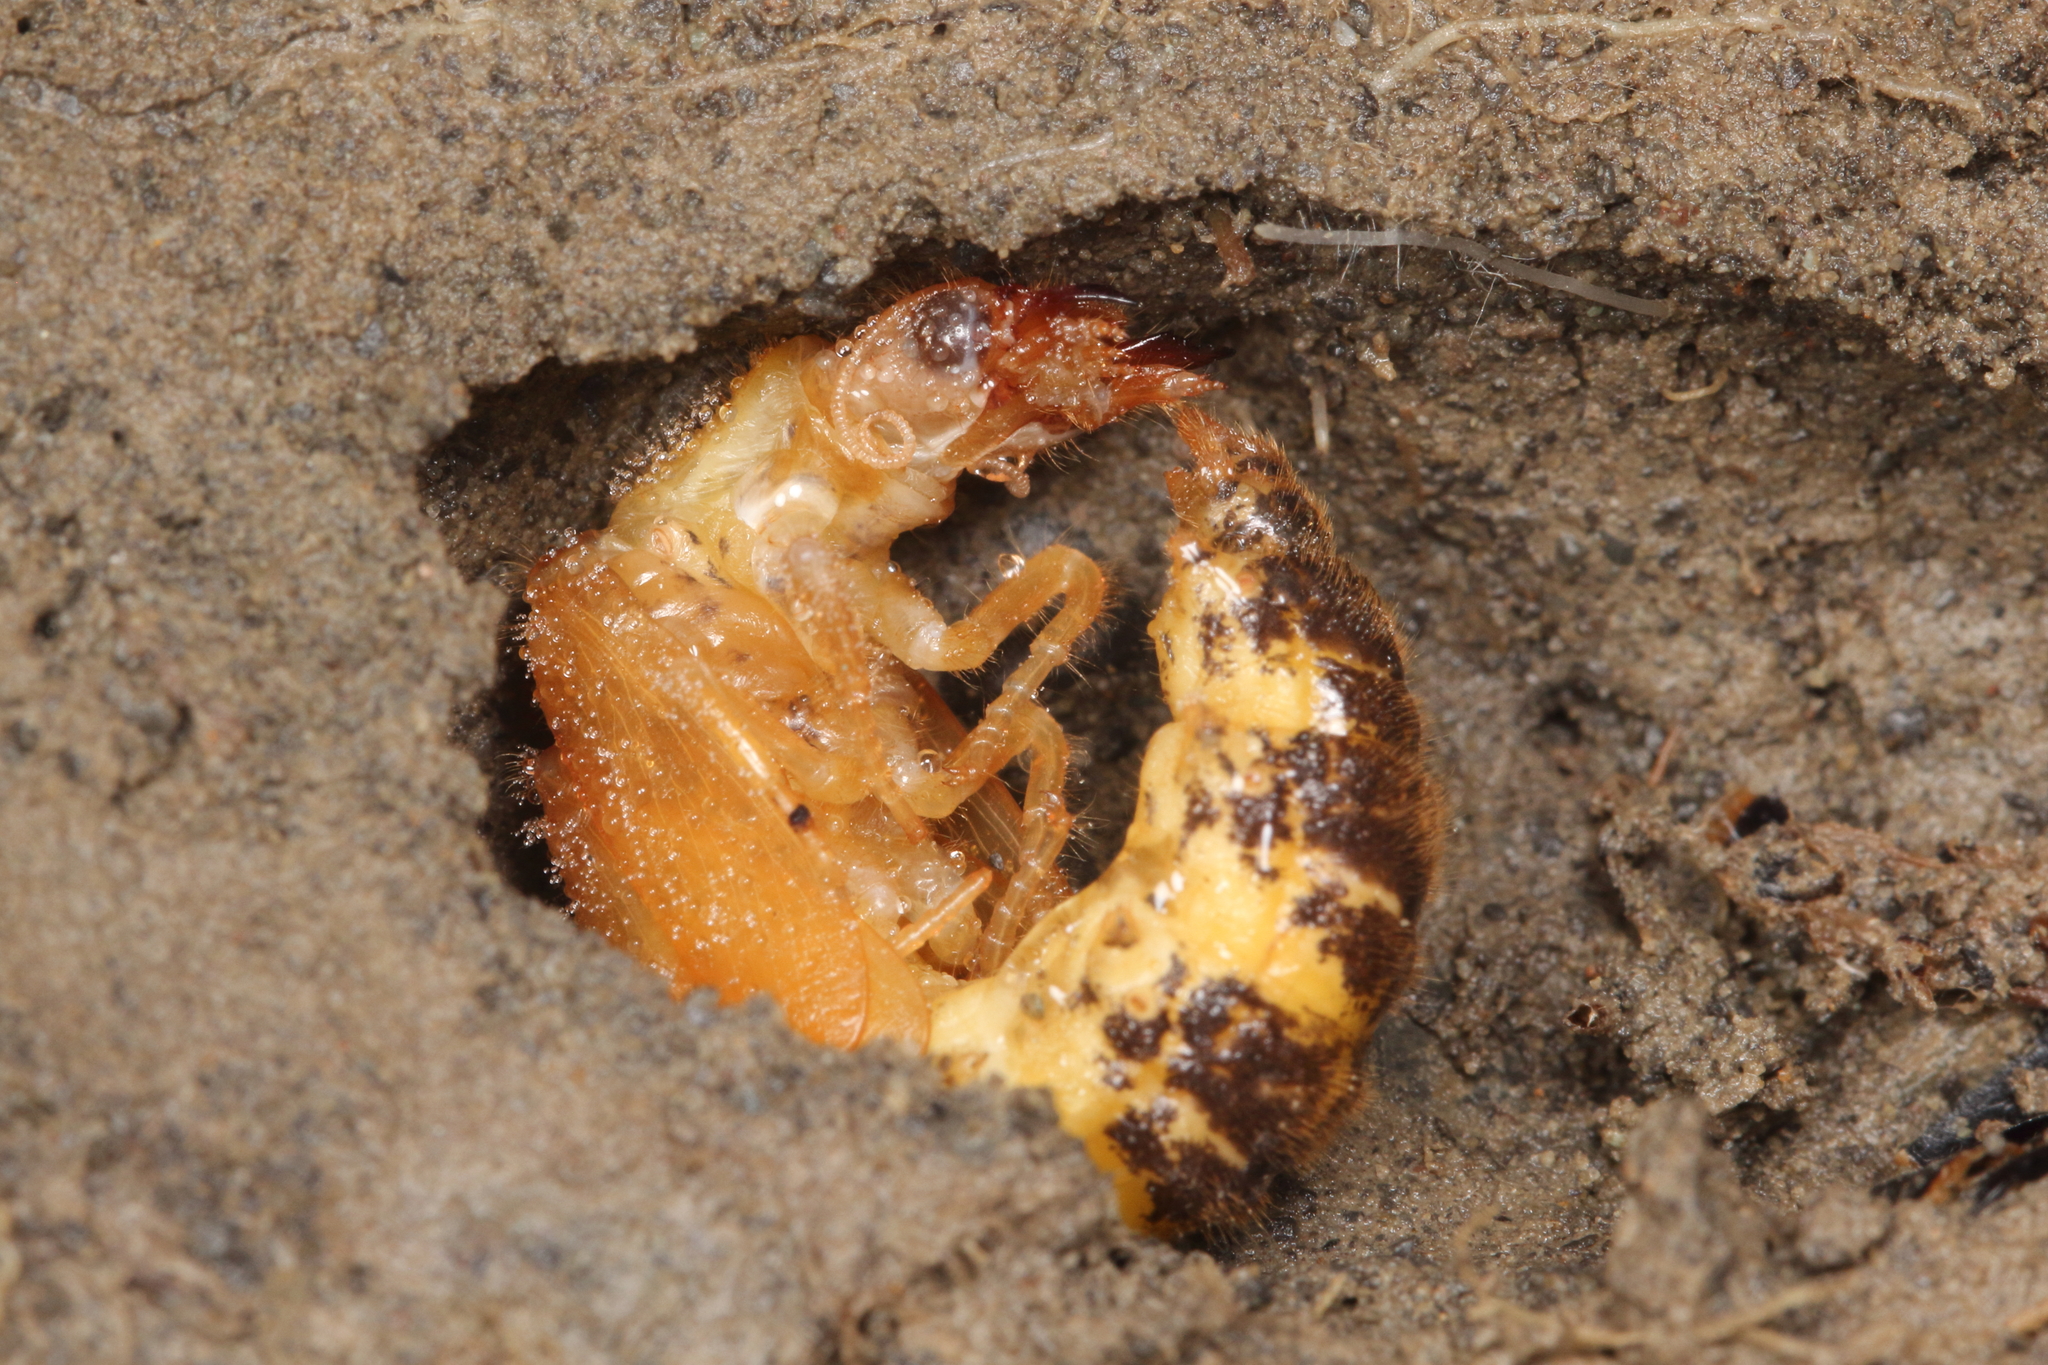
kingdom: Animalia
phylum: Arthropoda
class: Insecta
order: Megaloptera
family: Corydalidae
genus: Archichauliodes
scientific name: Archichauliodes diversus
